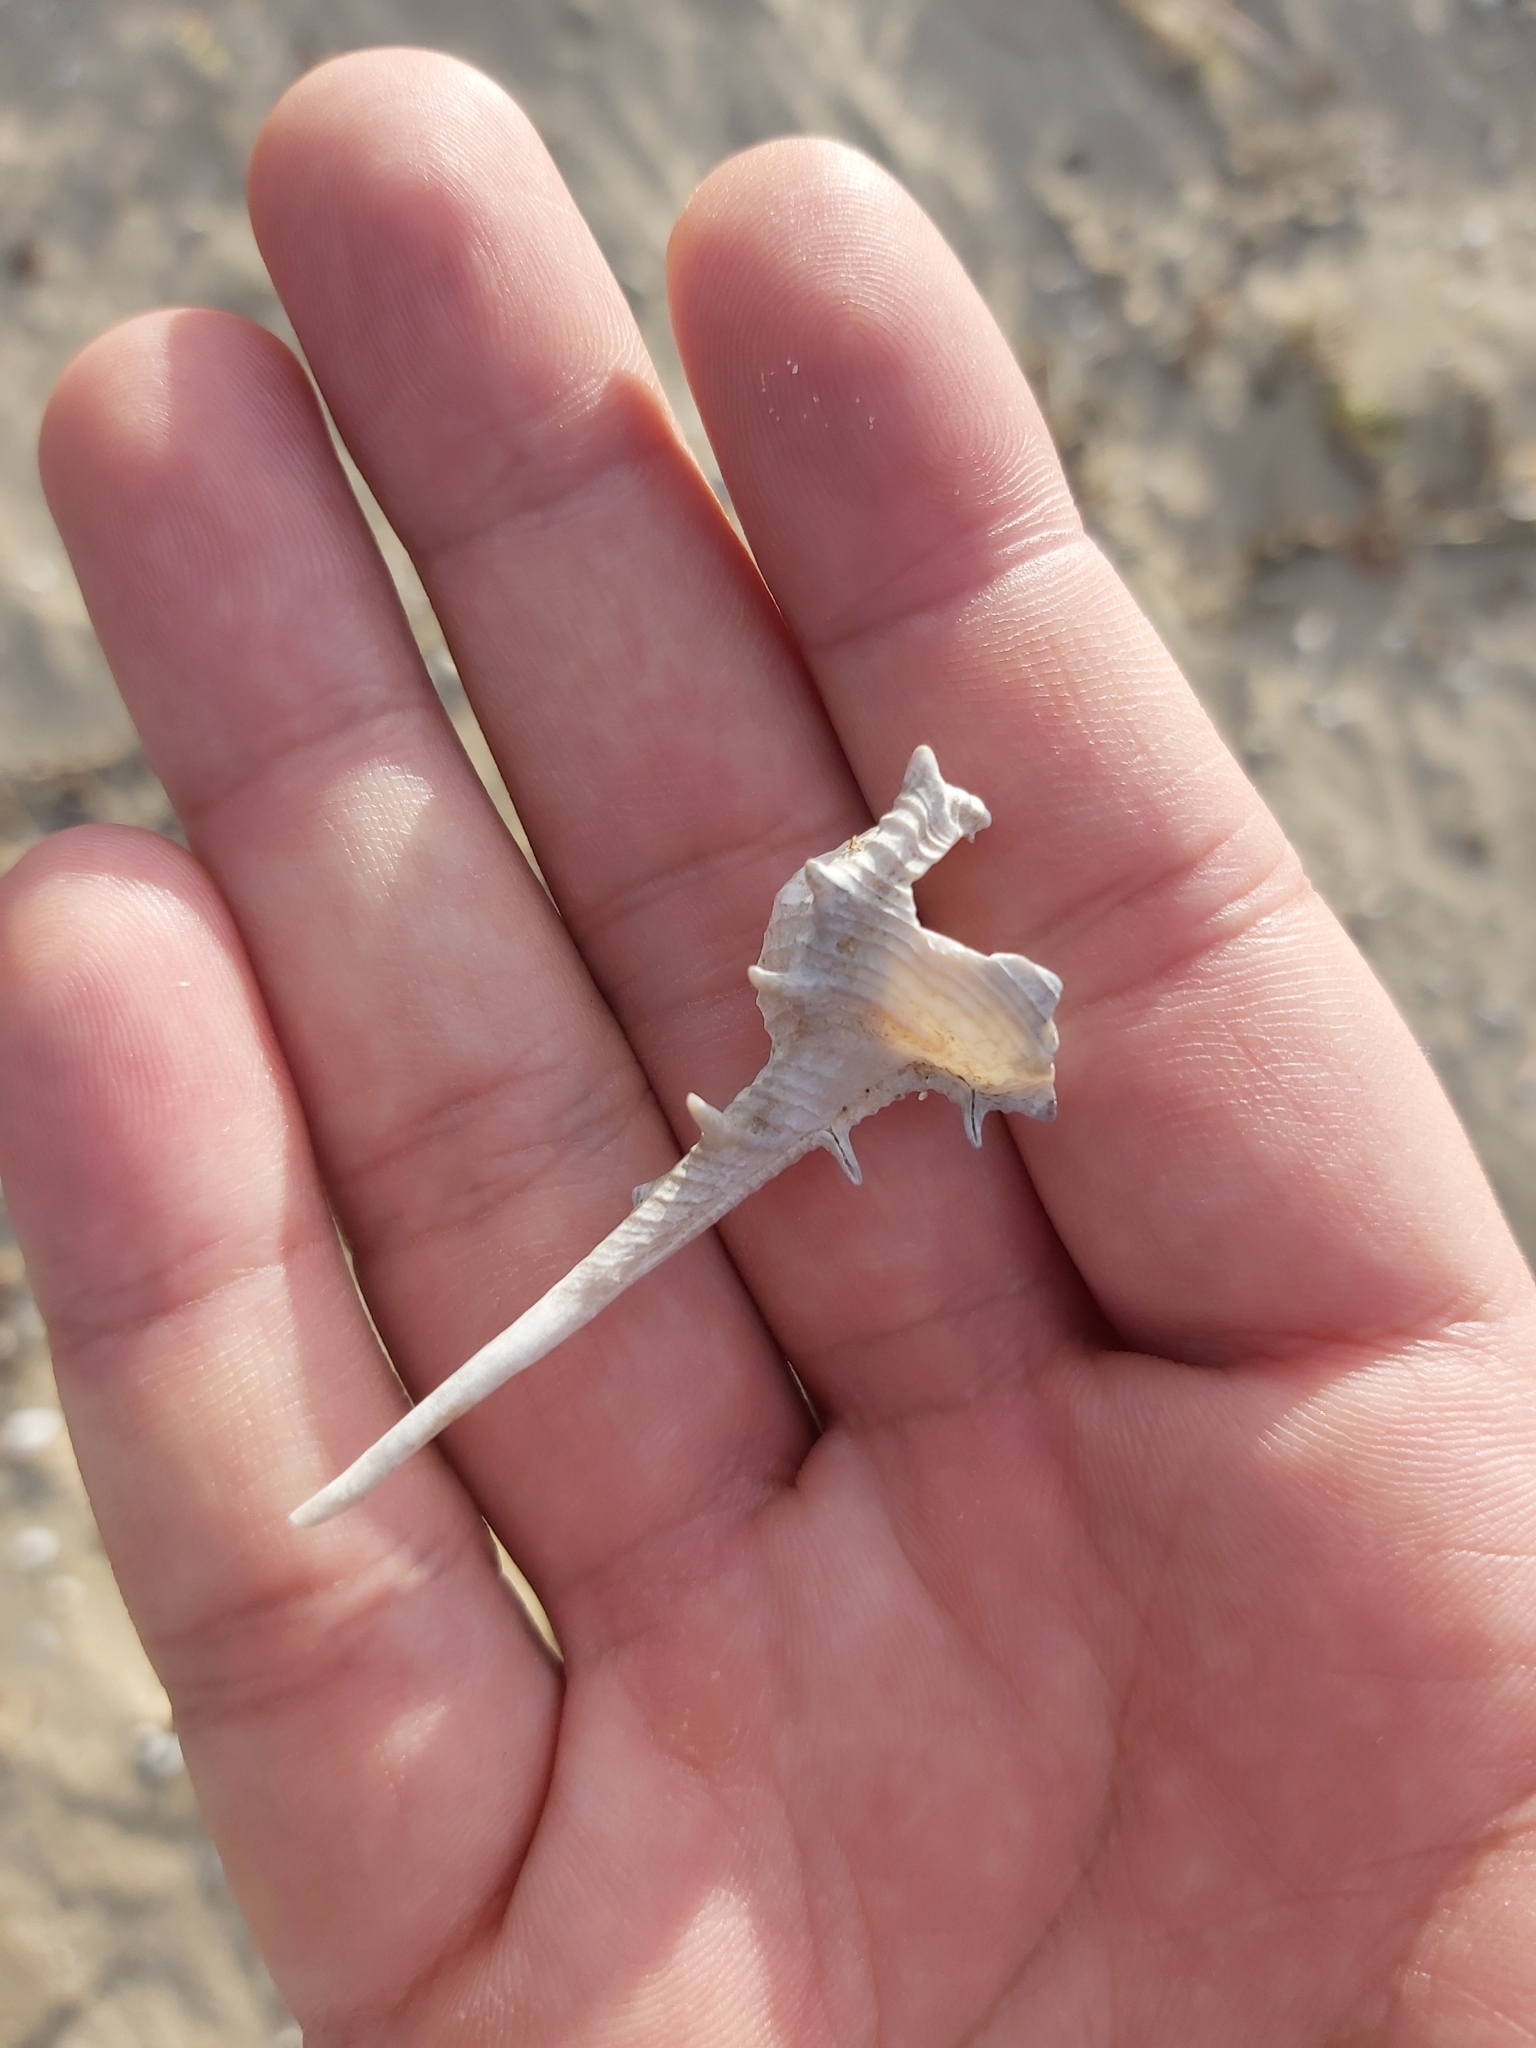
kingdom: Animalia
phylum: Mollusca
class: Gastropoda
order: Neogastropoda
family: Muricidae
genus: Murex
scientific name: Murex brevispina
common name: Brevispined murex
